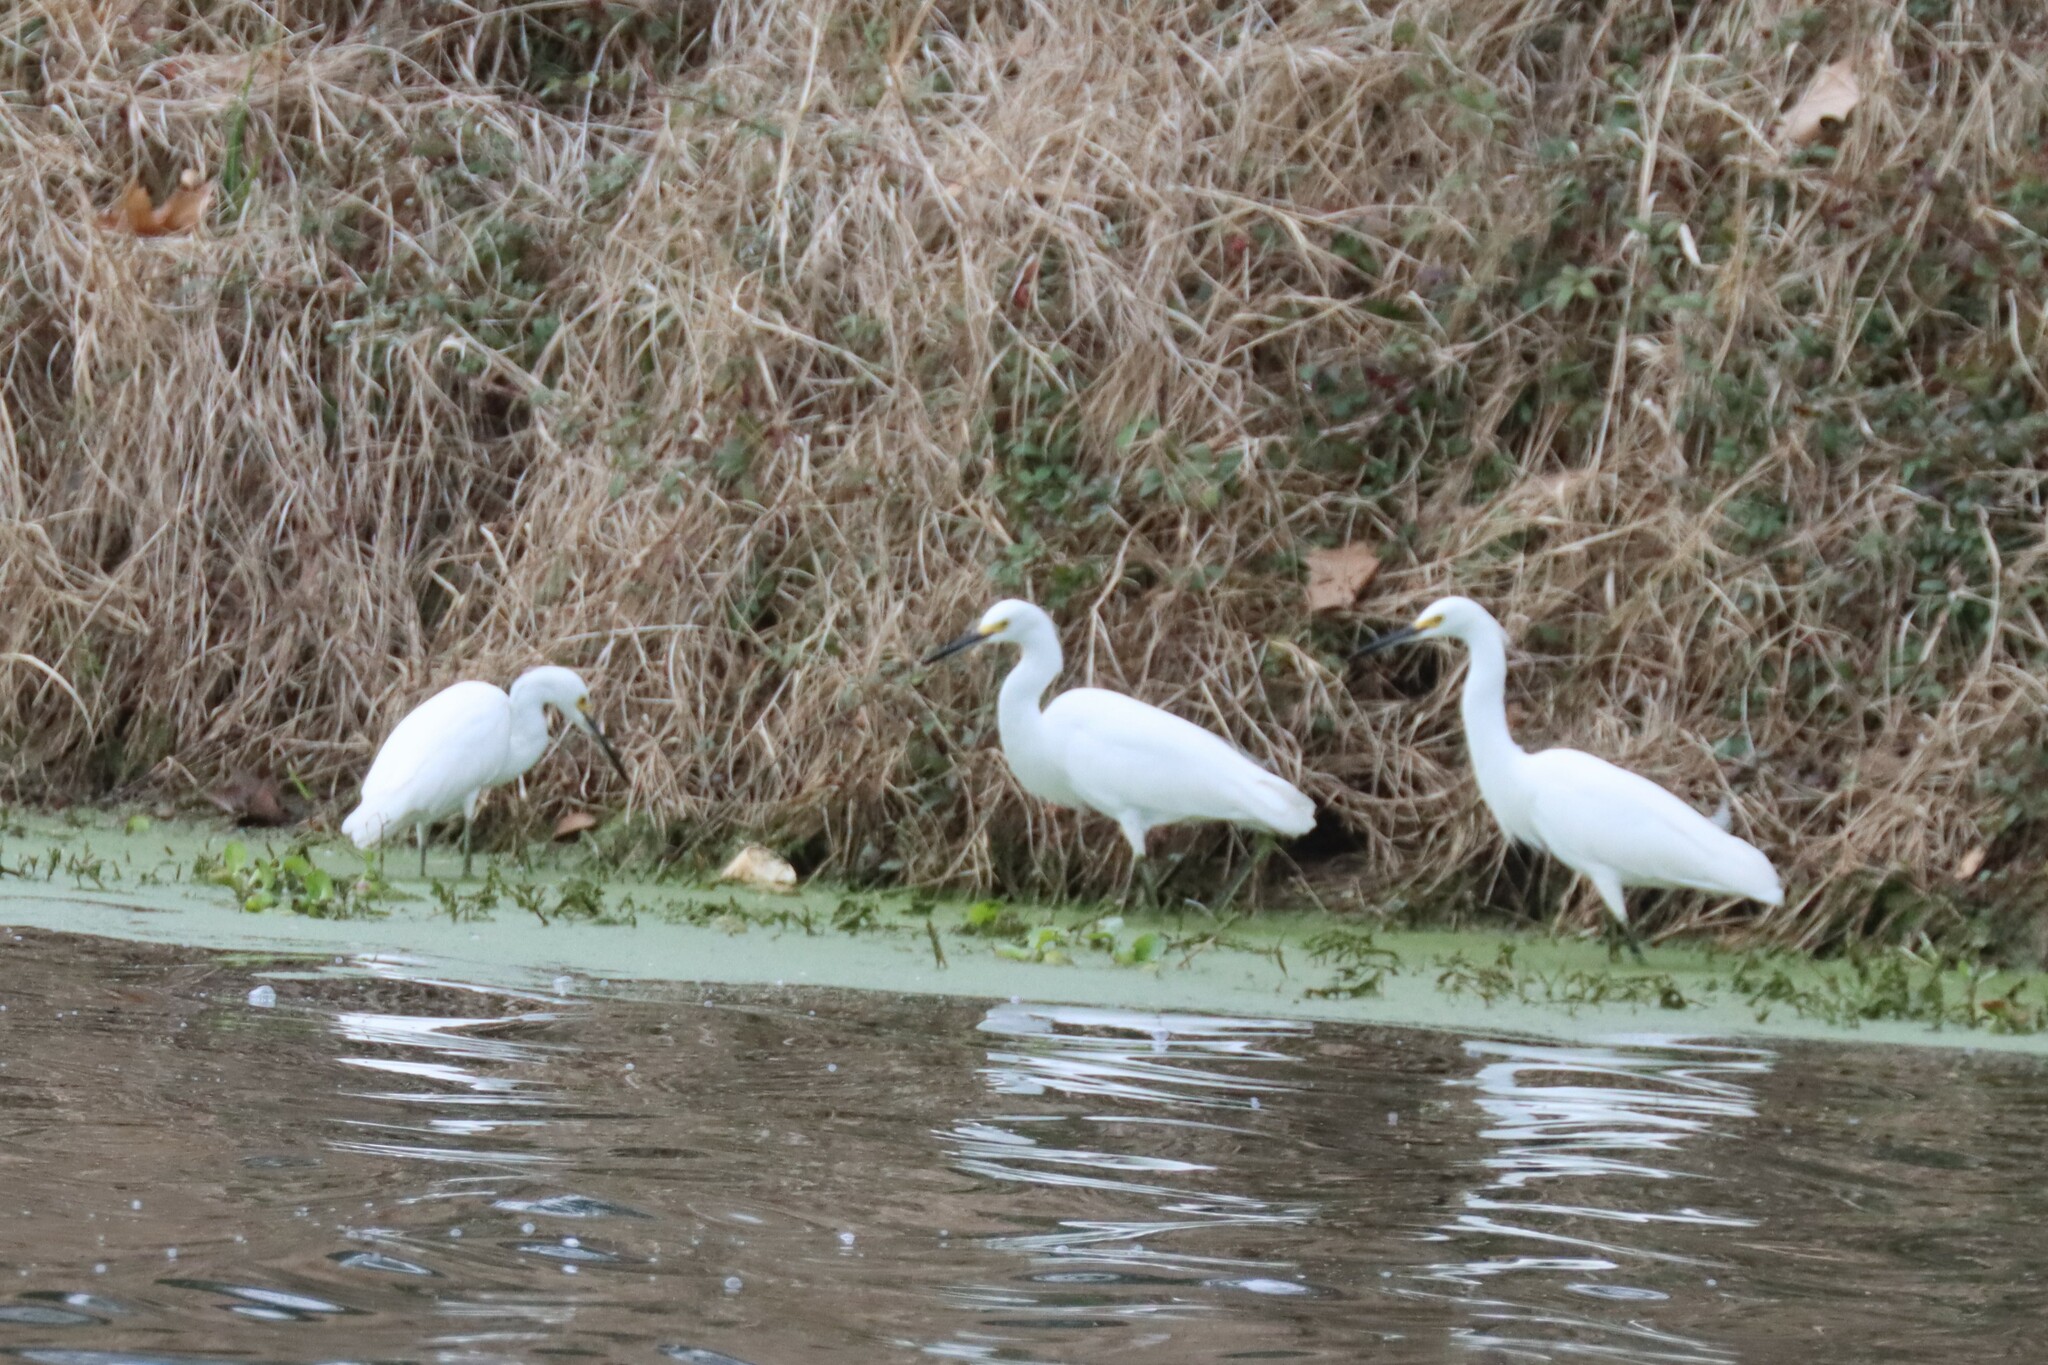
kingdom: Animalia
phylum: Chordata
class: Aves
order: Pelecaniformes
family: Ardeidae
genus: Egretta
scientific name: Egretta thula
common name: Snowy egret
